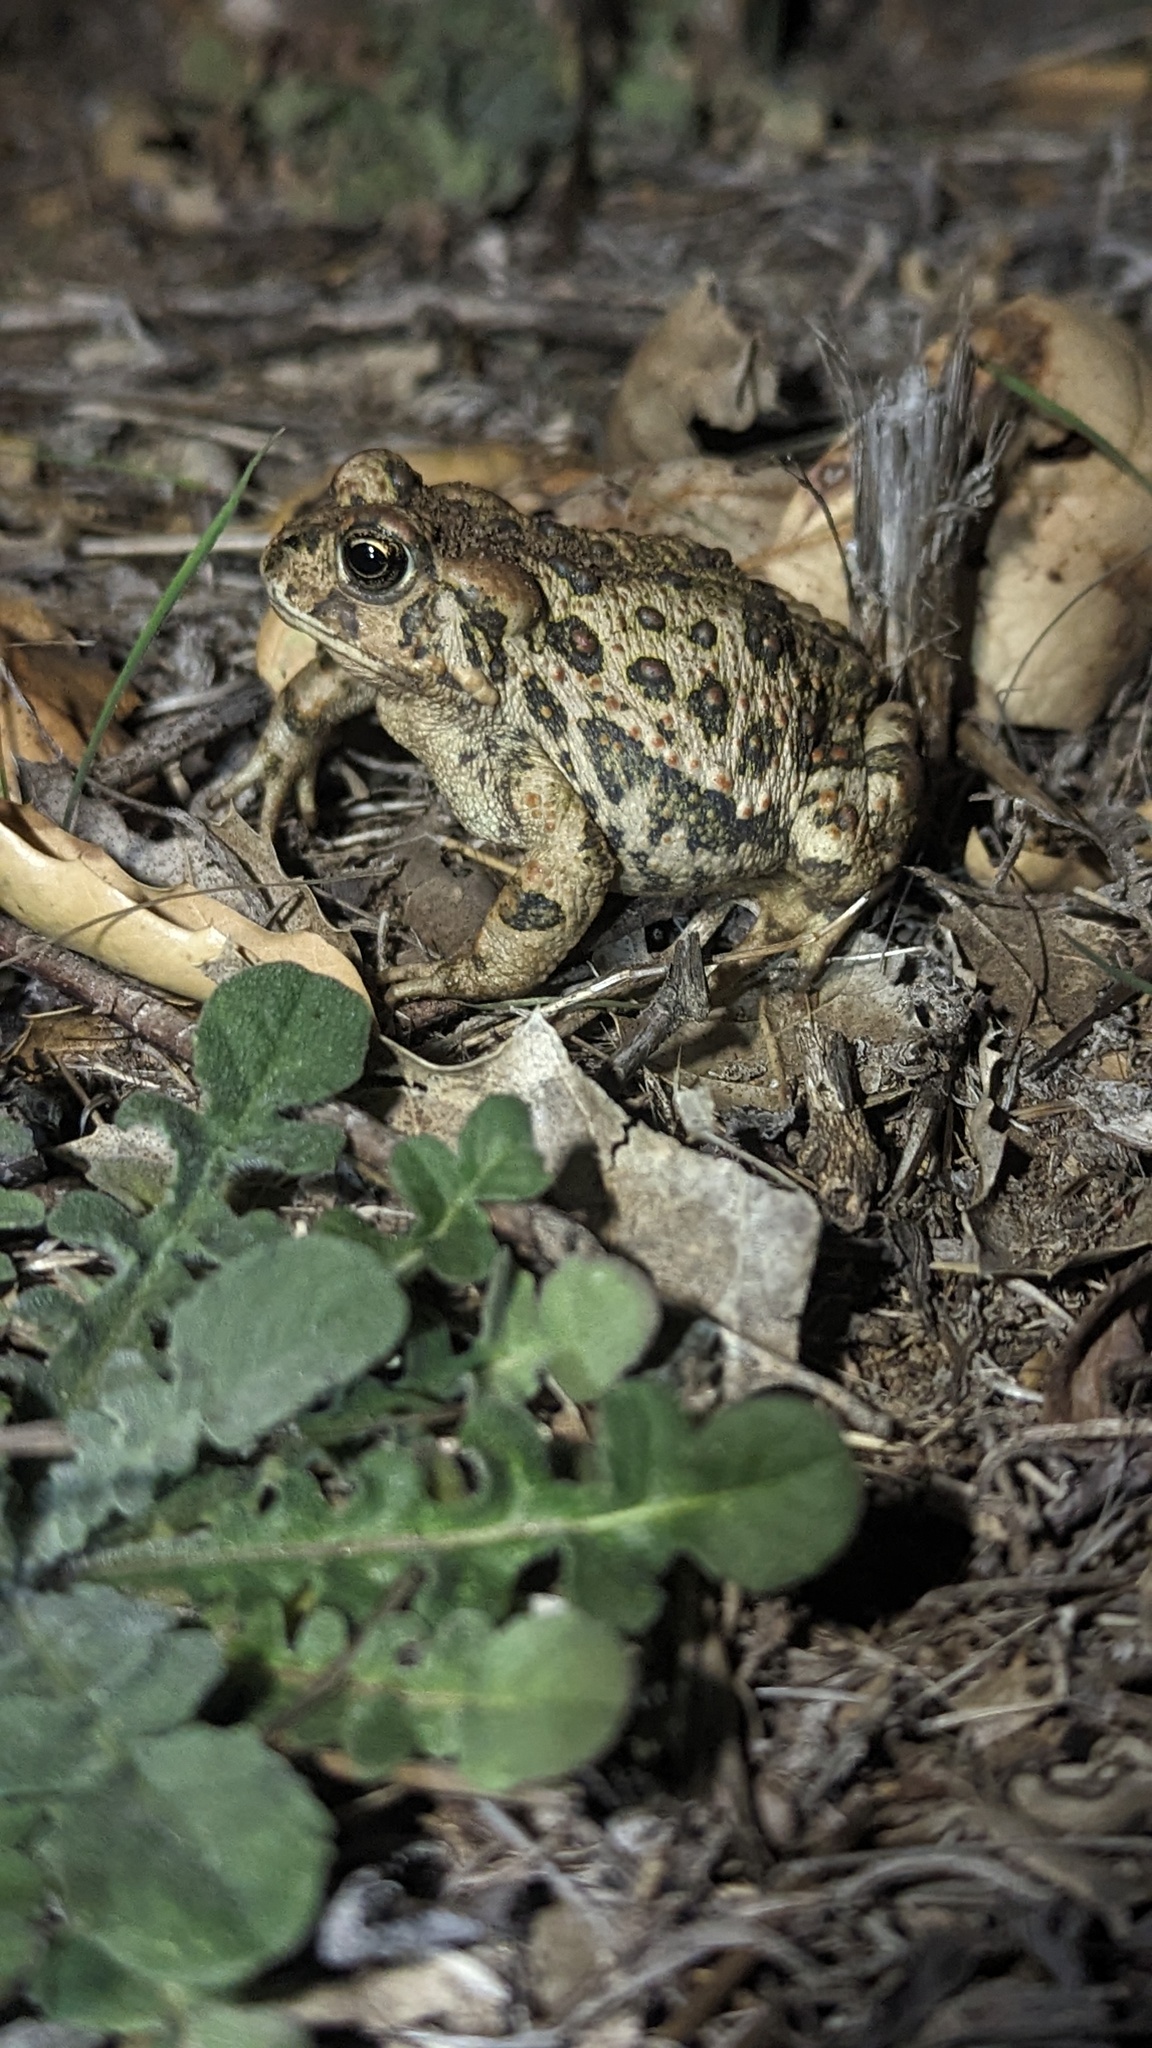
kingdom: Animalia
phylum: Chordata
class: Amphibia
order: Anura
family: Bufonidae
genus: Anaxyrus
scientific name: Anaxyrus boreas
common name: Western toad
